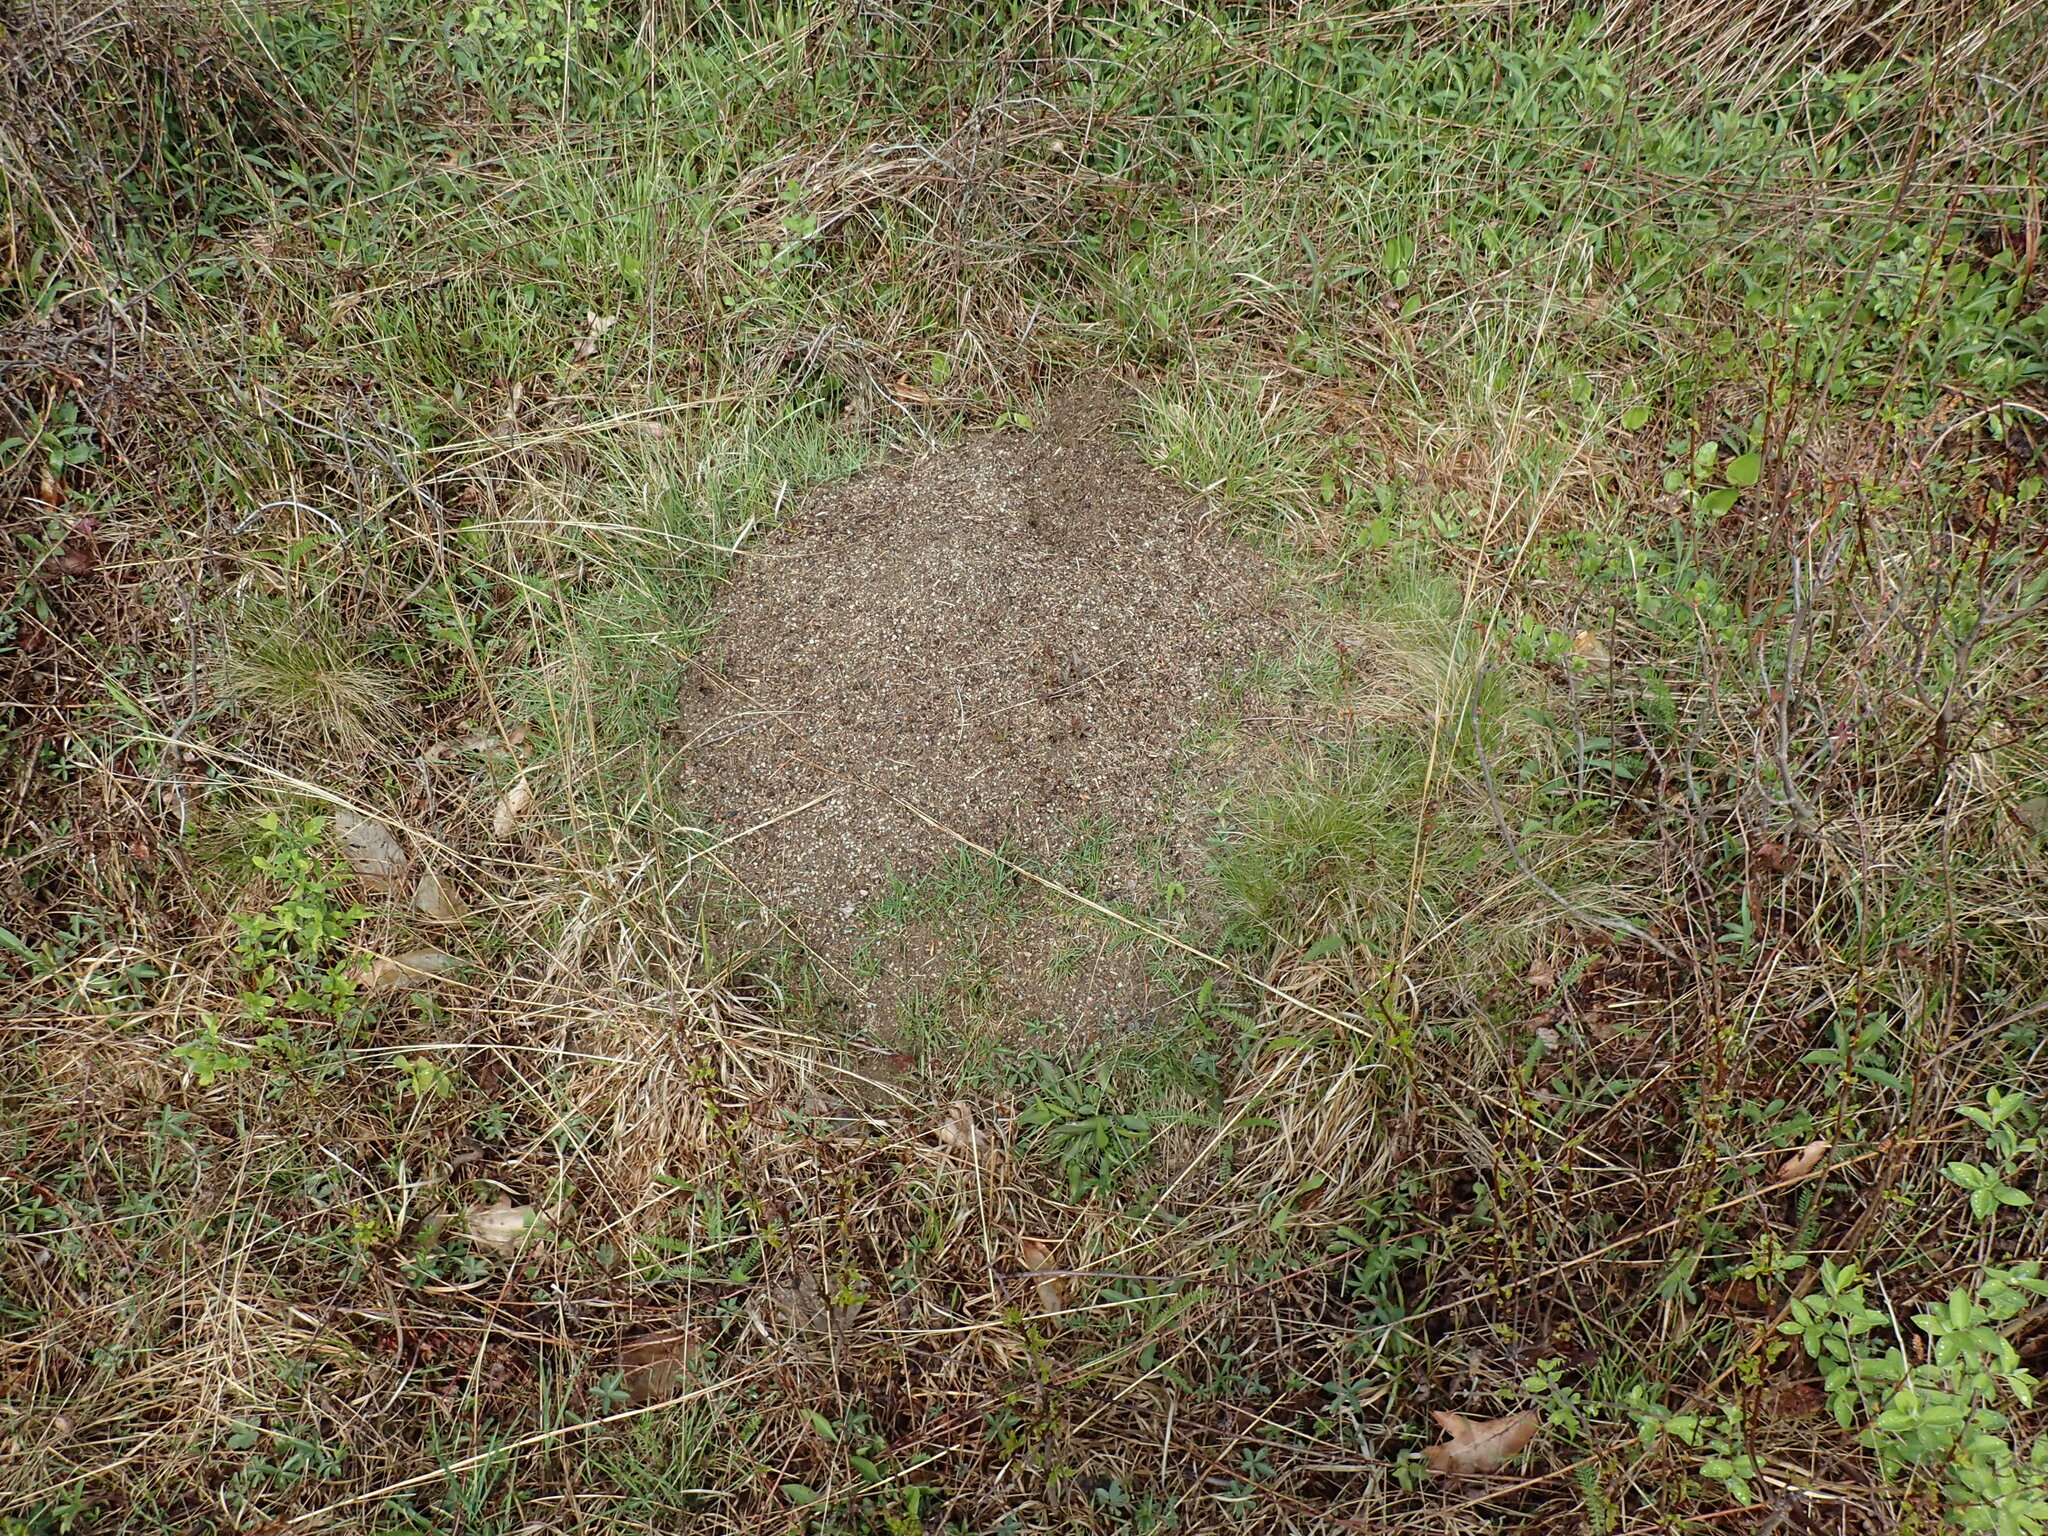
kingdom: Animalia
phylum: Arthropoda
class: Insecta
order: Hymenoptera
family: Formicidae
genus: Formica
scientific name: Formica exsectoides
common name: Allegheny mound ant
